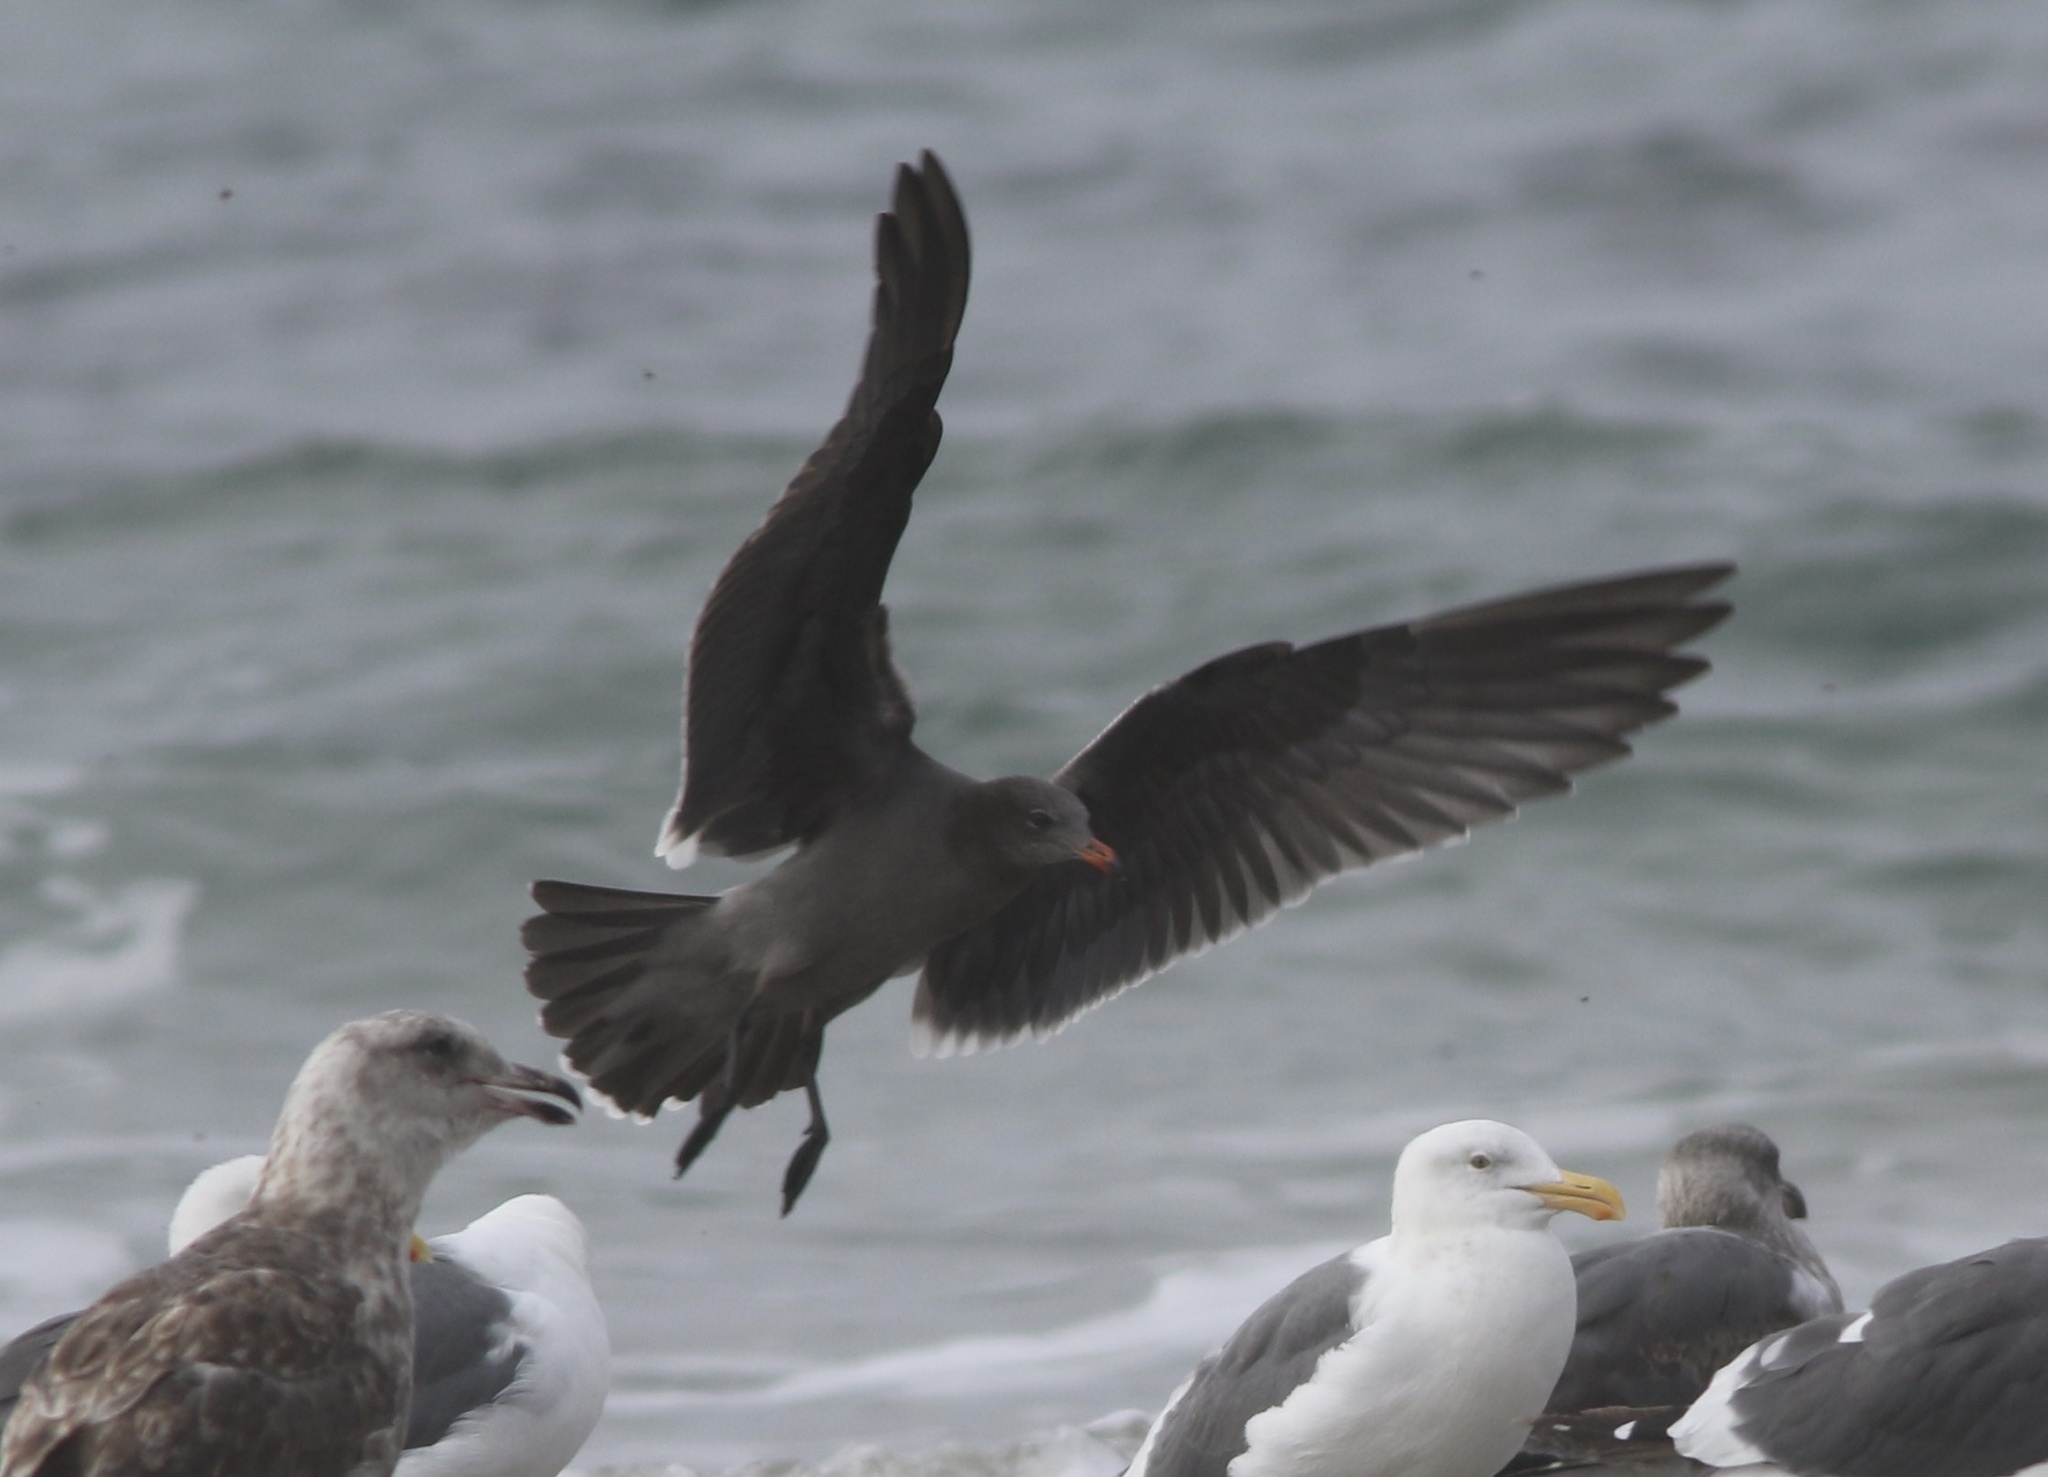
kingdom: Animalia
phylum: Chordata
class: Aves
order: Charadriiformes
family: Laridae
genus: Larus
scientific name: Larus heermanni
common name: Heermann's gull
